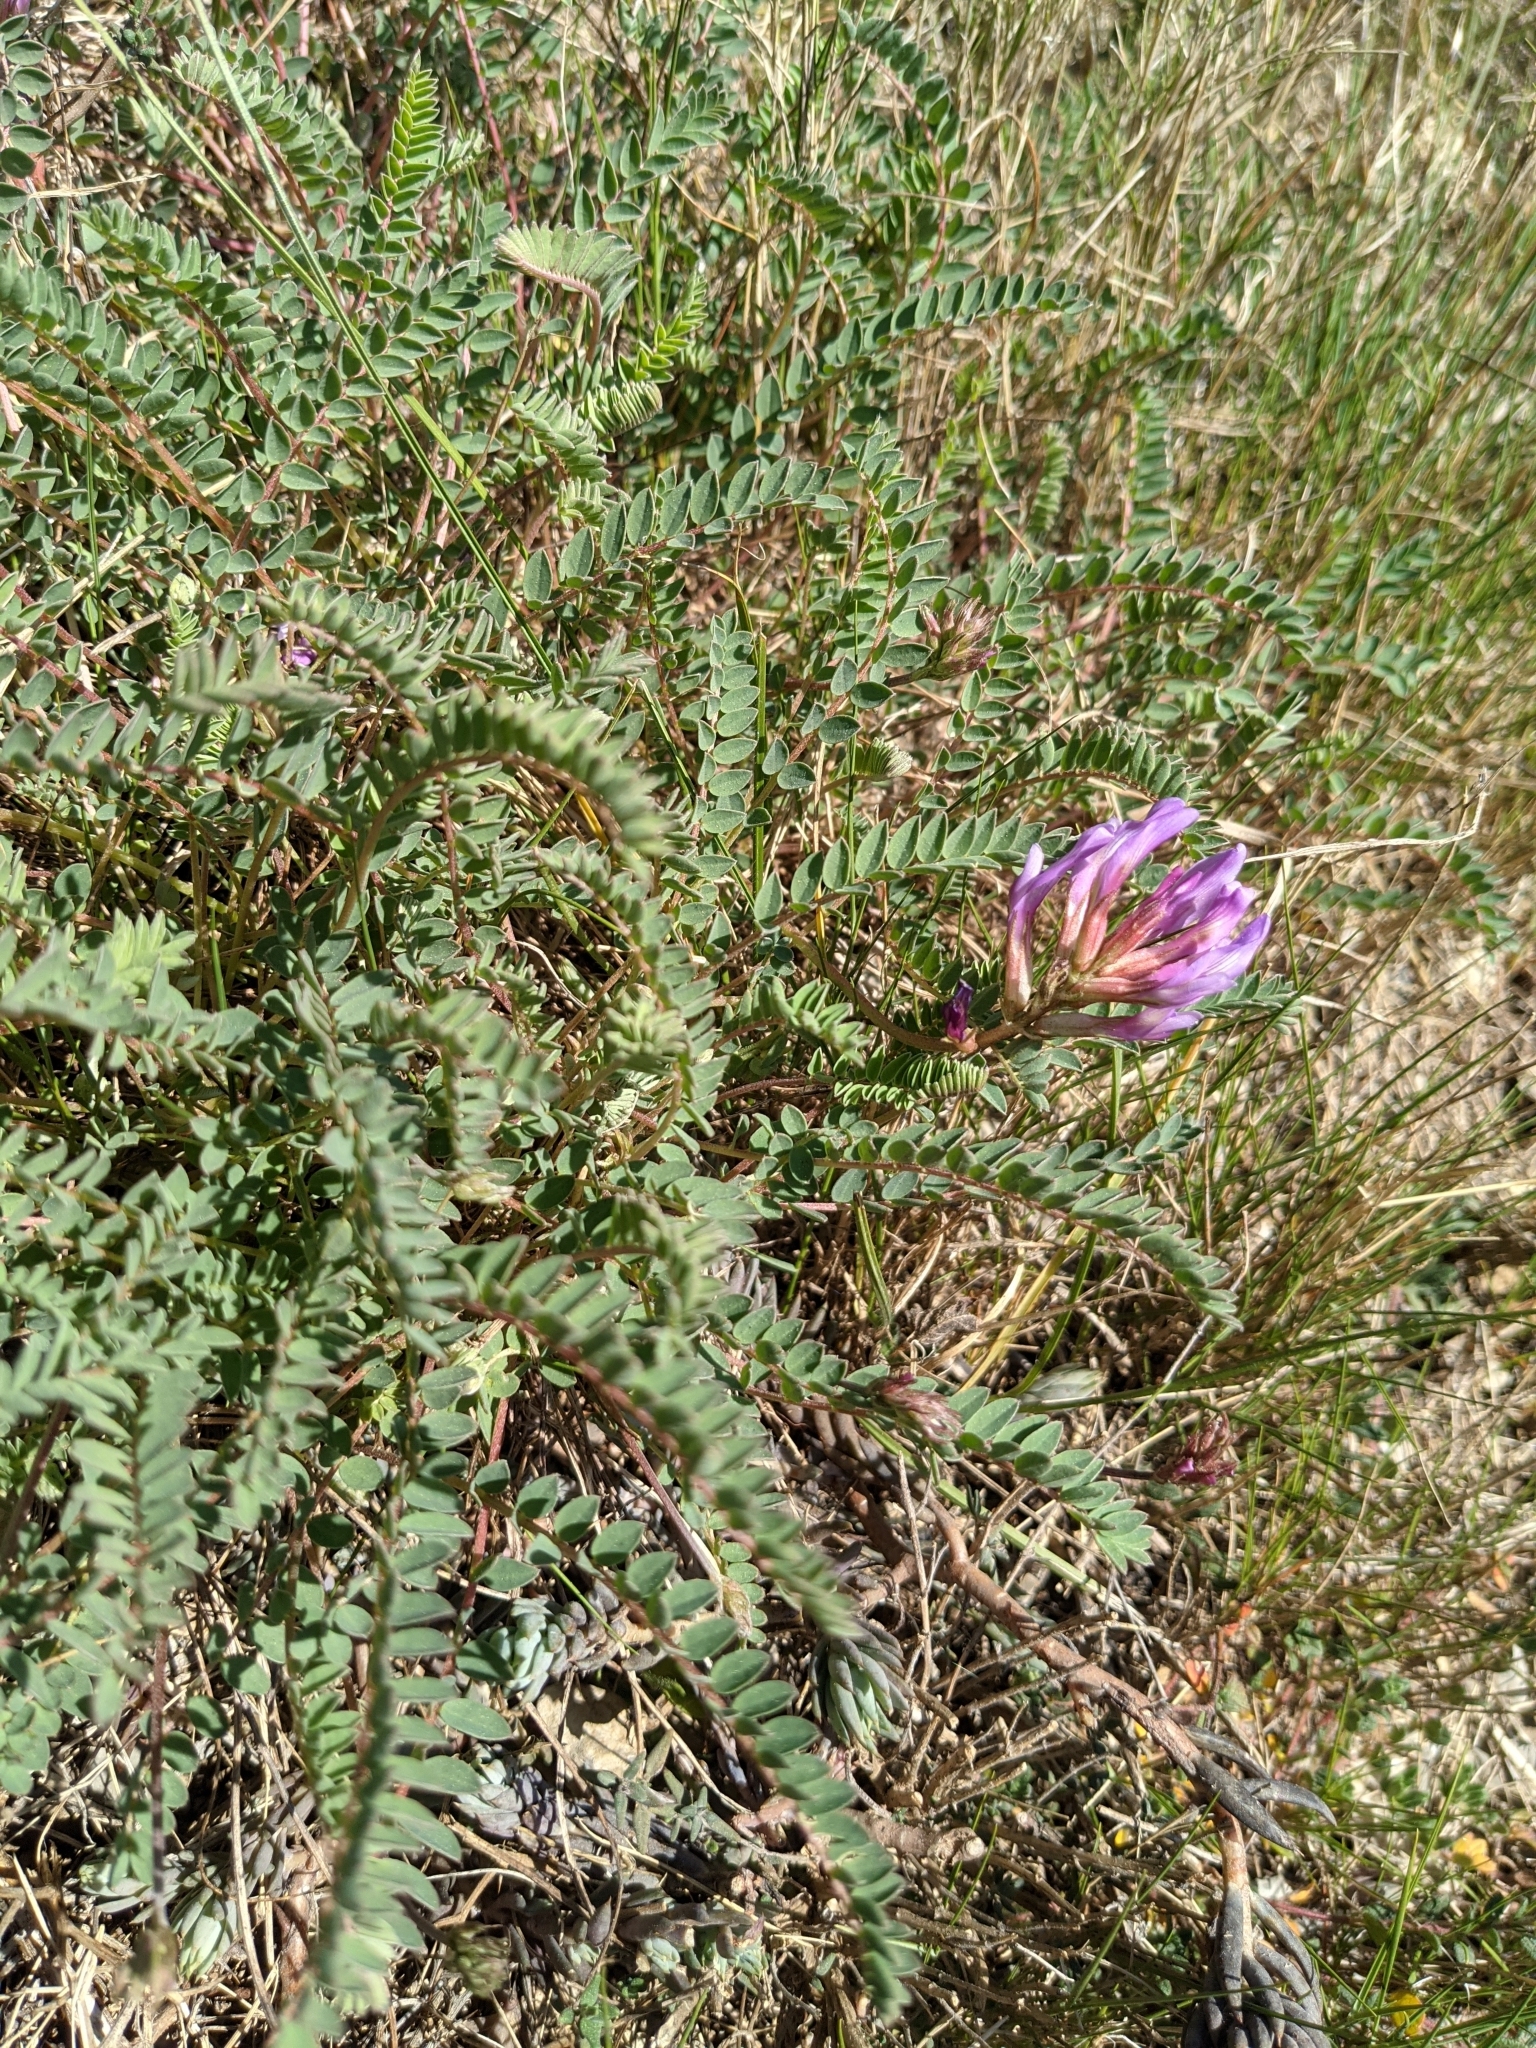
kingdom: Plantae
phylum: Tracheophyta
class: Magnoliopsida
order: Fabales
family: Fabaceae
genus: Astragalus
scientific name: Astragalus monspessulanus
